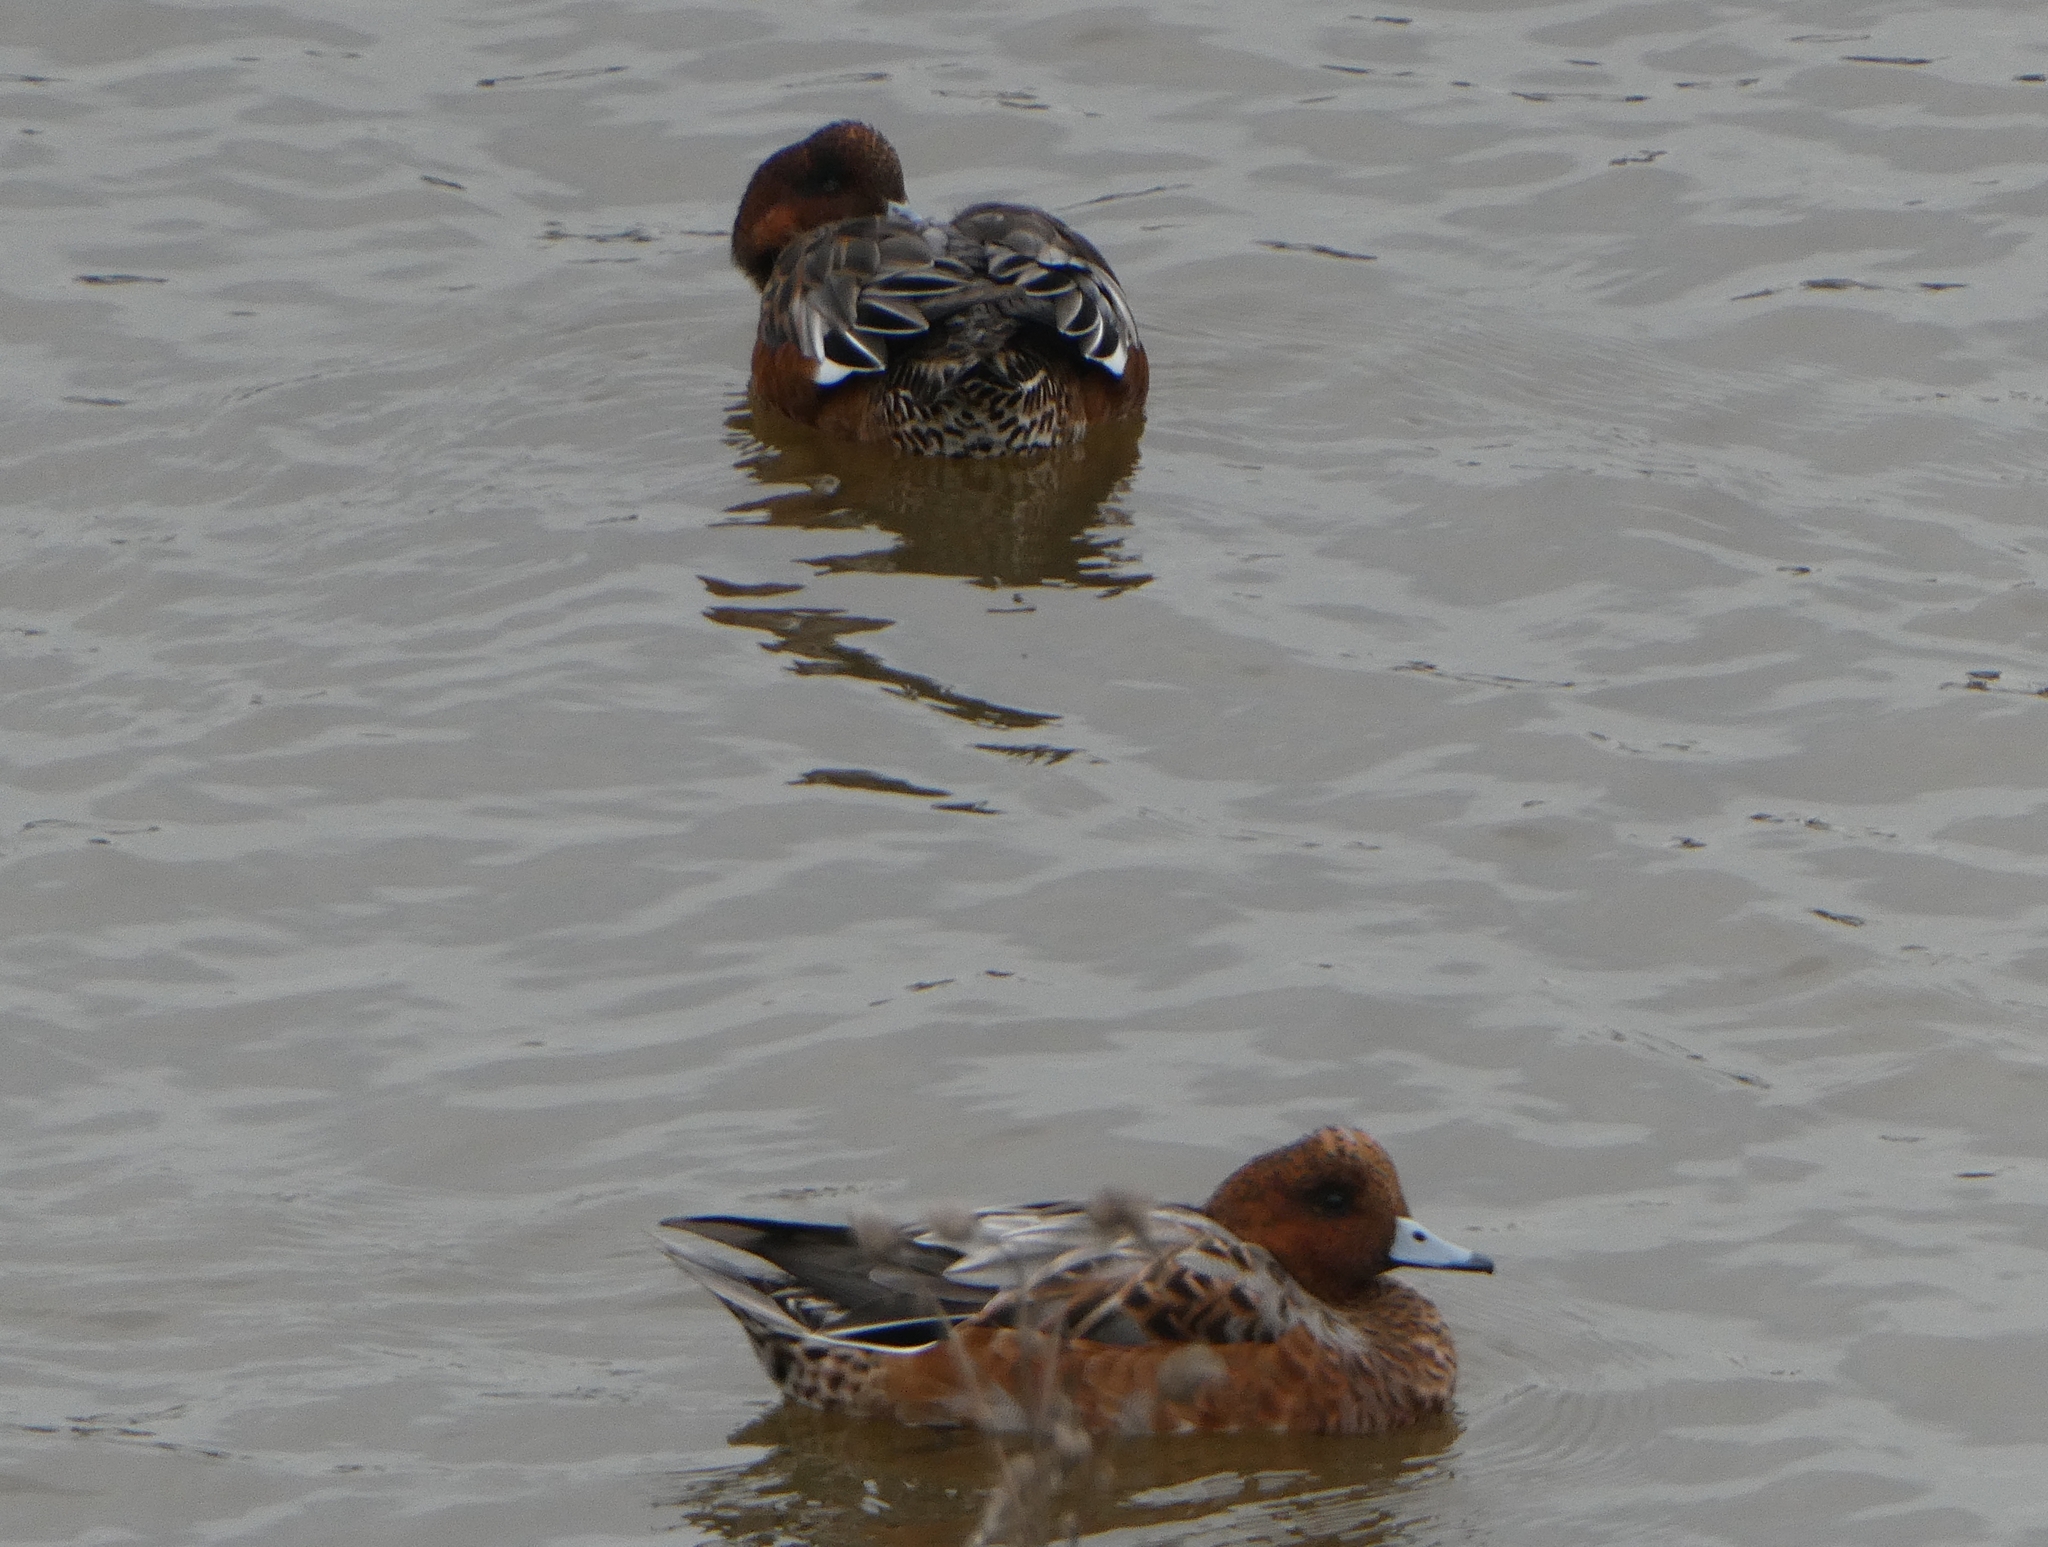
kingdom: Animalia
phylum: Chordata
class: Aves
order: Anseriformes
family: Anatidae
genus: Mareca
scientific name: Mareca penelope
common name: Eurasian wigeon
